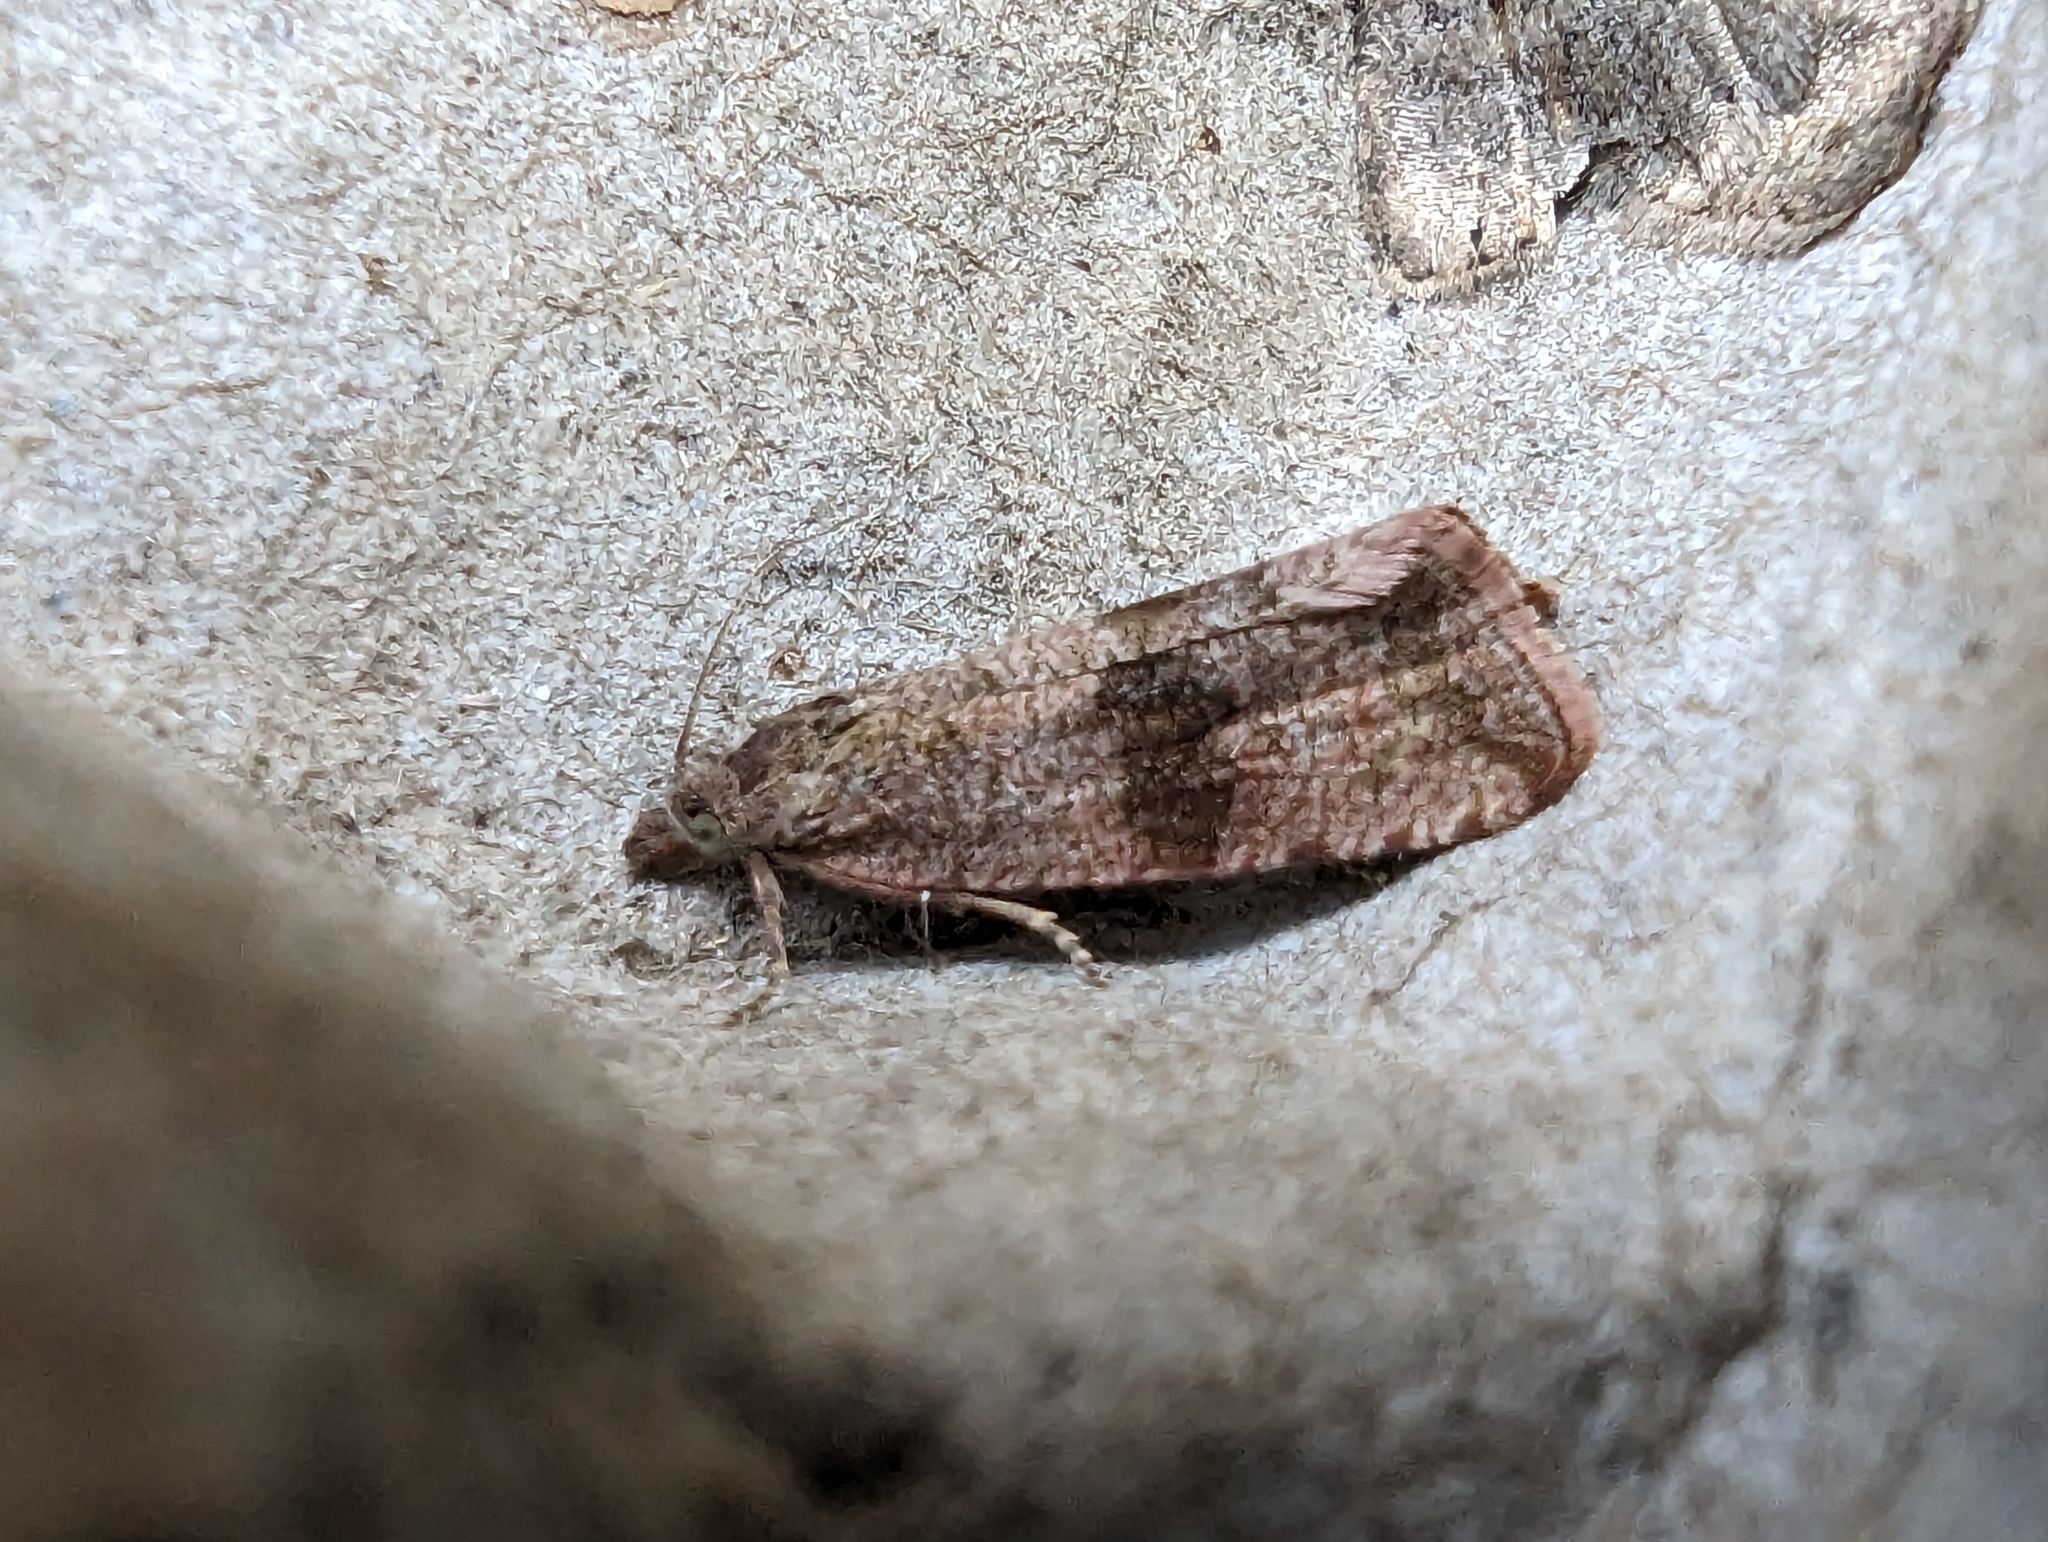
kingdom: Animalia
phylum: Arthropoda
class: Insecta
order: Lepidoptera
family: Tortricidae
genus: Celypha
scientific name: Celypha striana
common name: Barred marble
